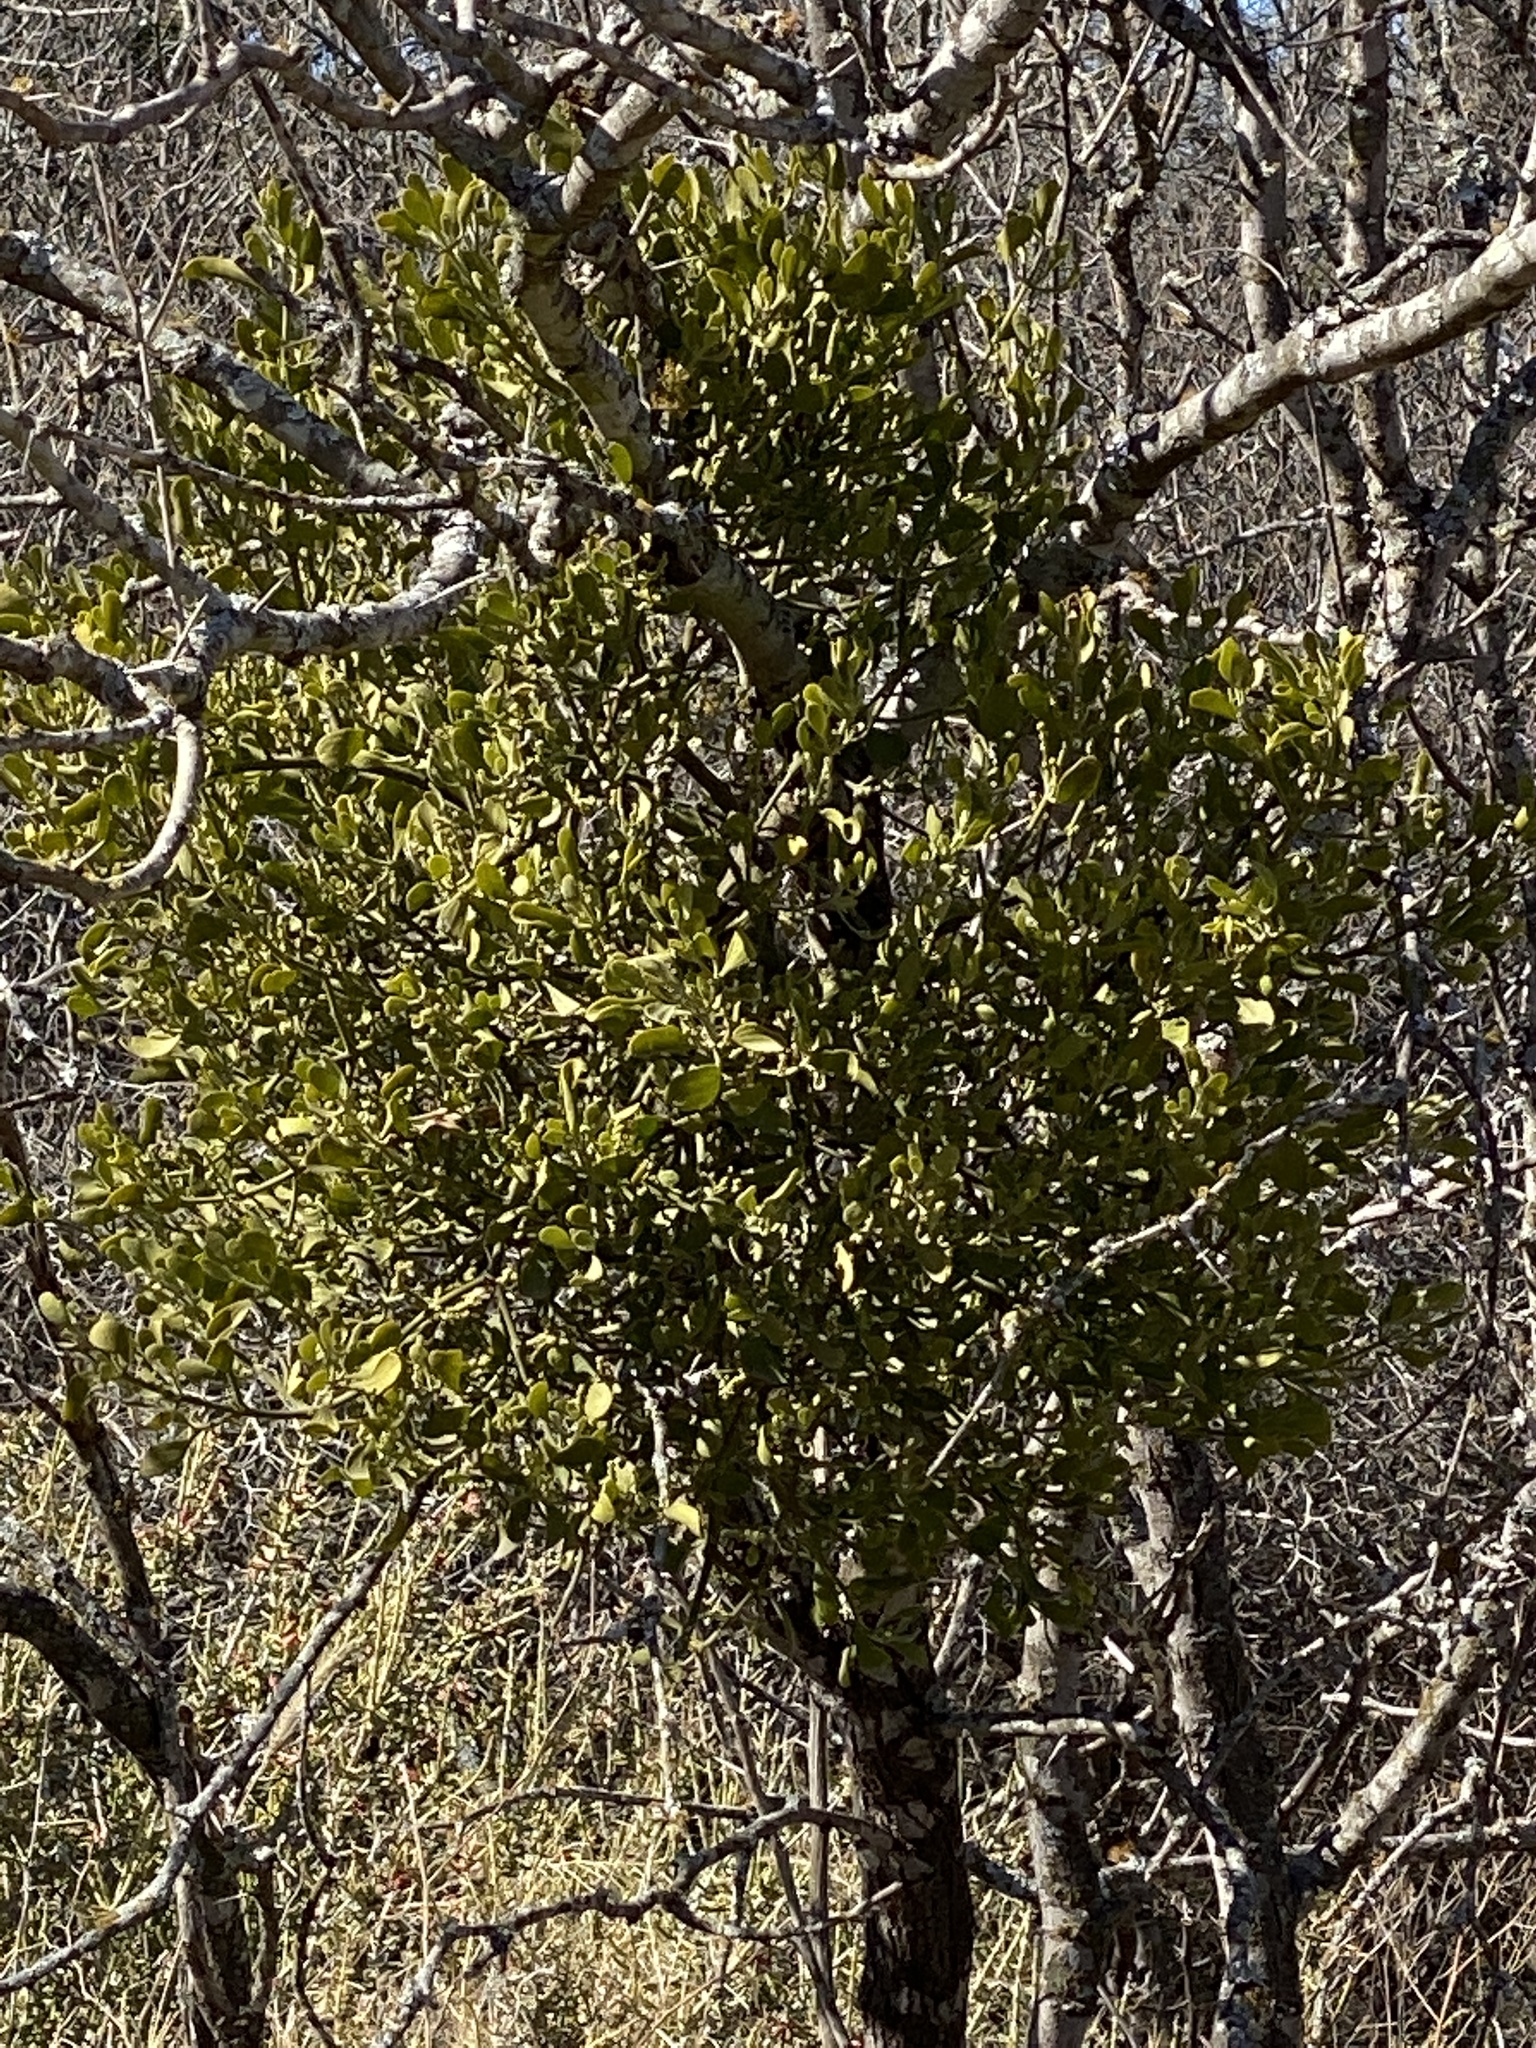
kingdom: Plantae
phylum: Tracheophyta
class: Magnoliopsida
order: Santalales
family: Viscaceae
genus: Phoradendron
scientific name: Phoradendron leucarpum
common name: Pacific mistletoe
